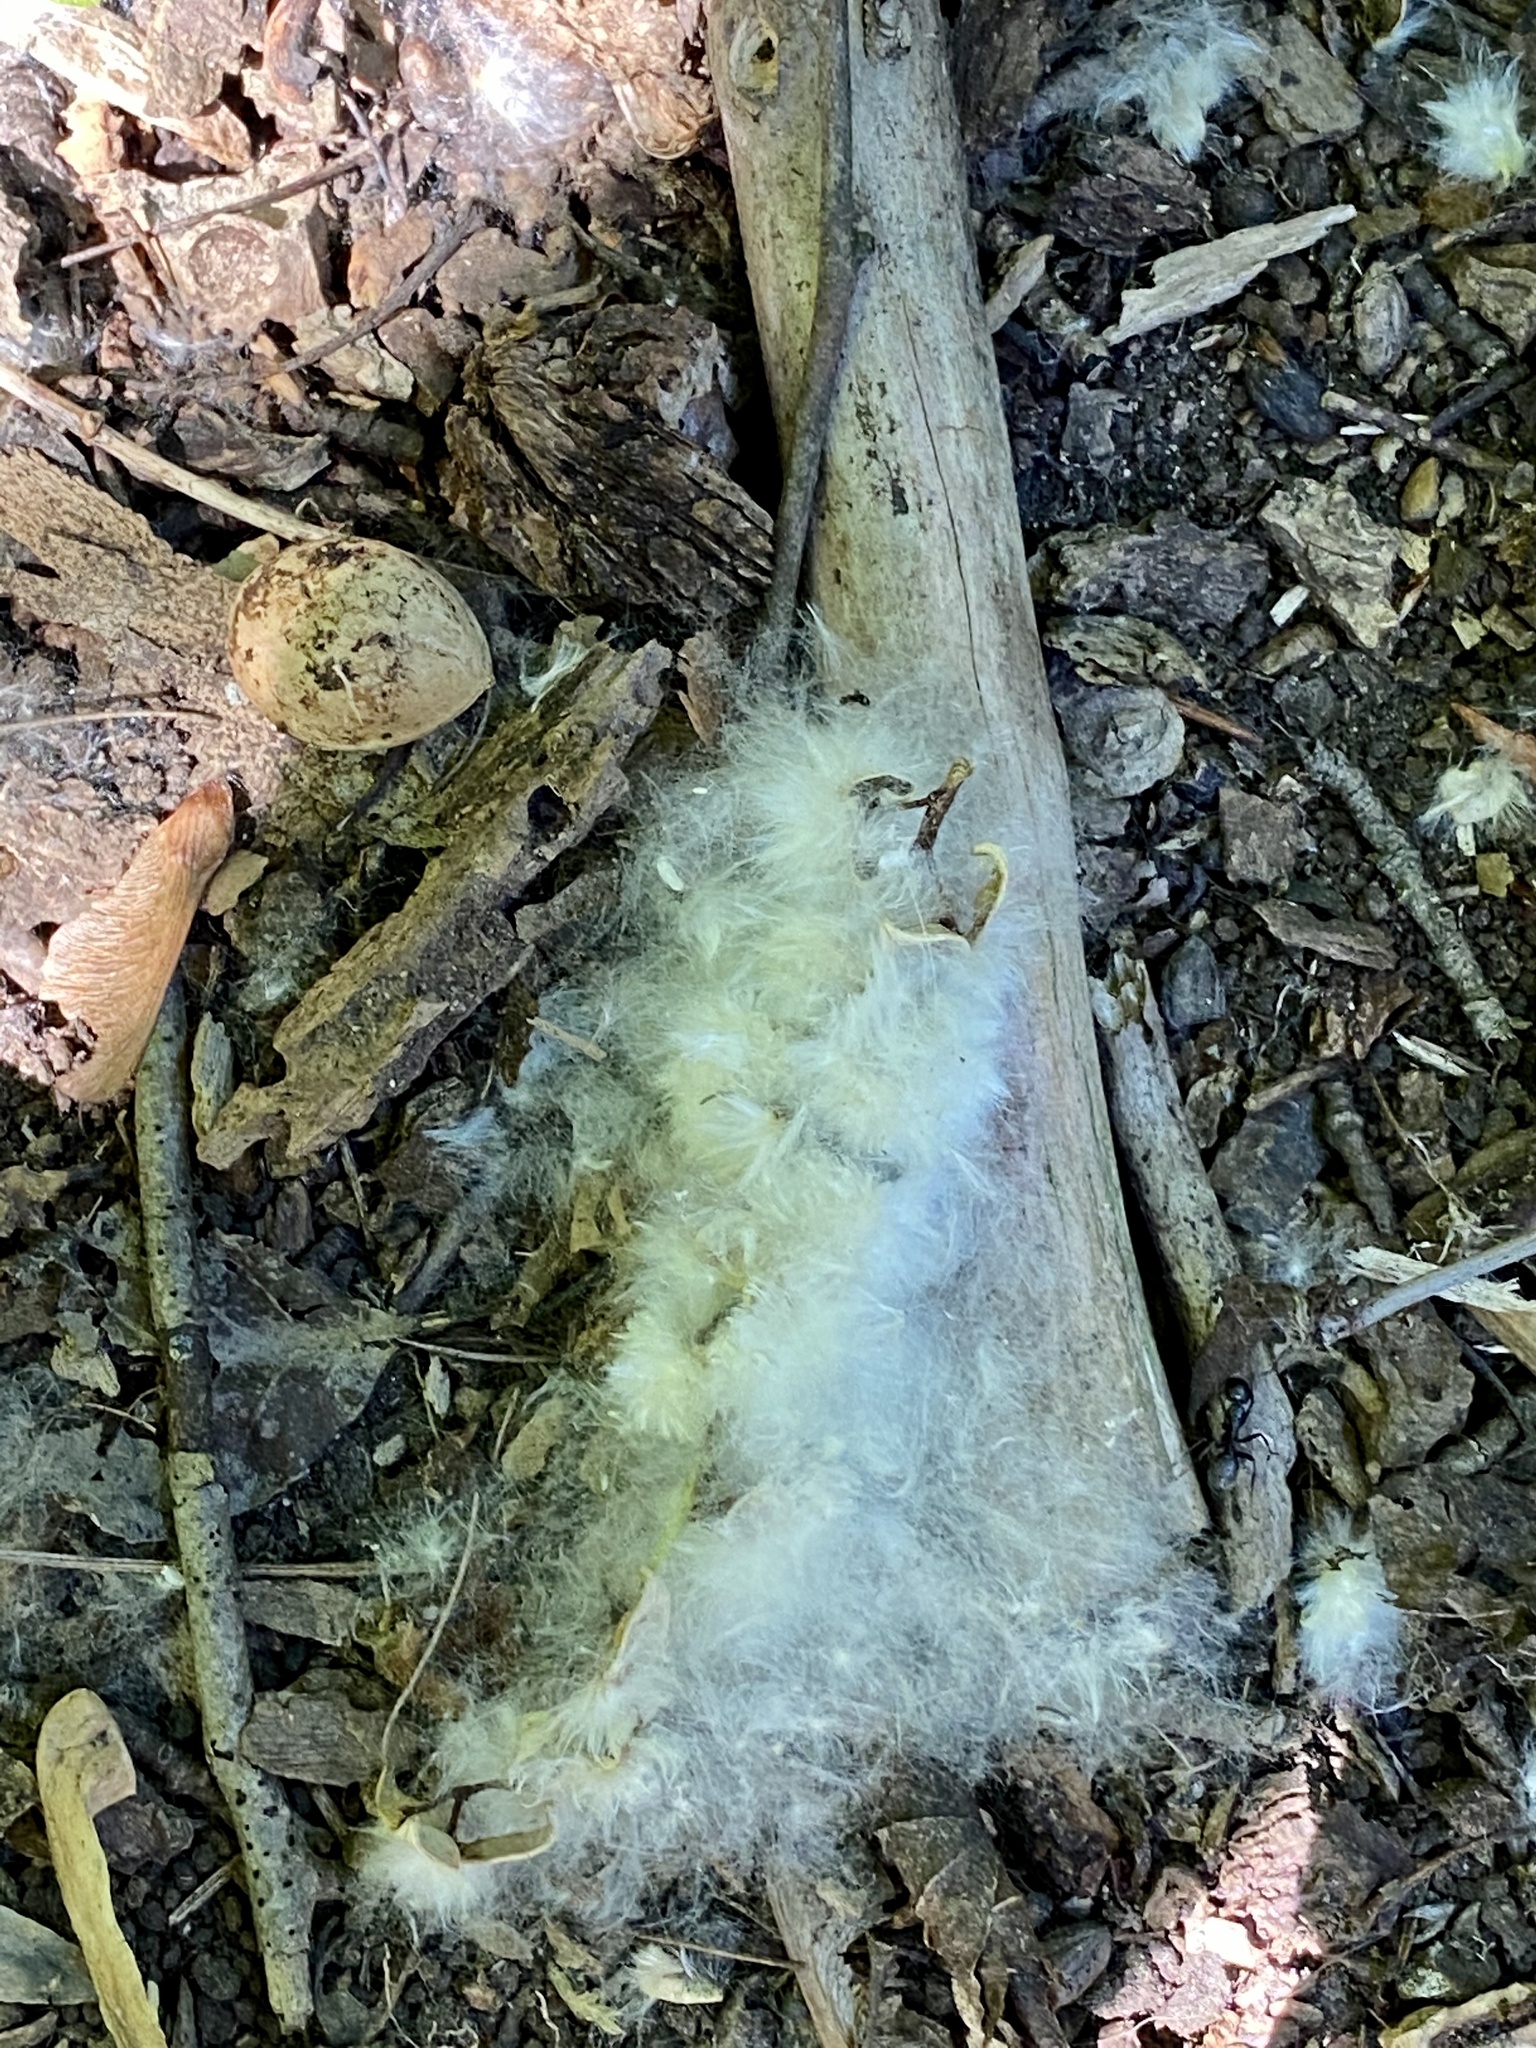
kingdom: Plantae
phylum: Tracheophyta
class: Magnoliopsida
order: Malpighiales
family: Salicaceae
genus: Populus
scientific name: Populus deltoides
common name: Eastern cottonwood
